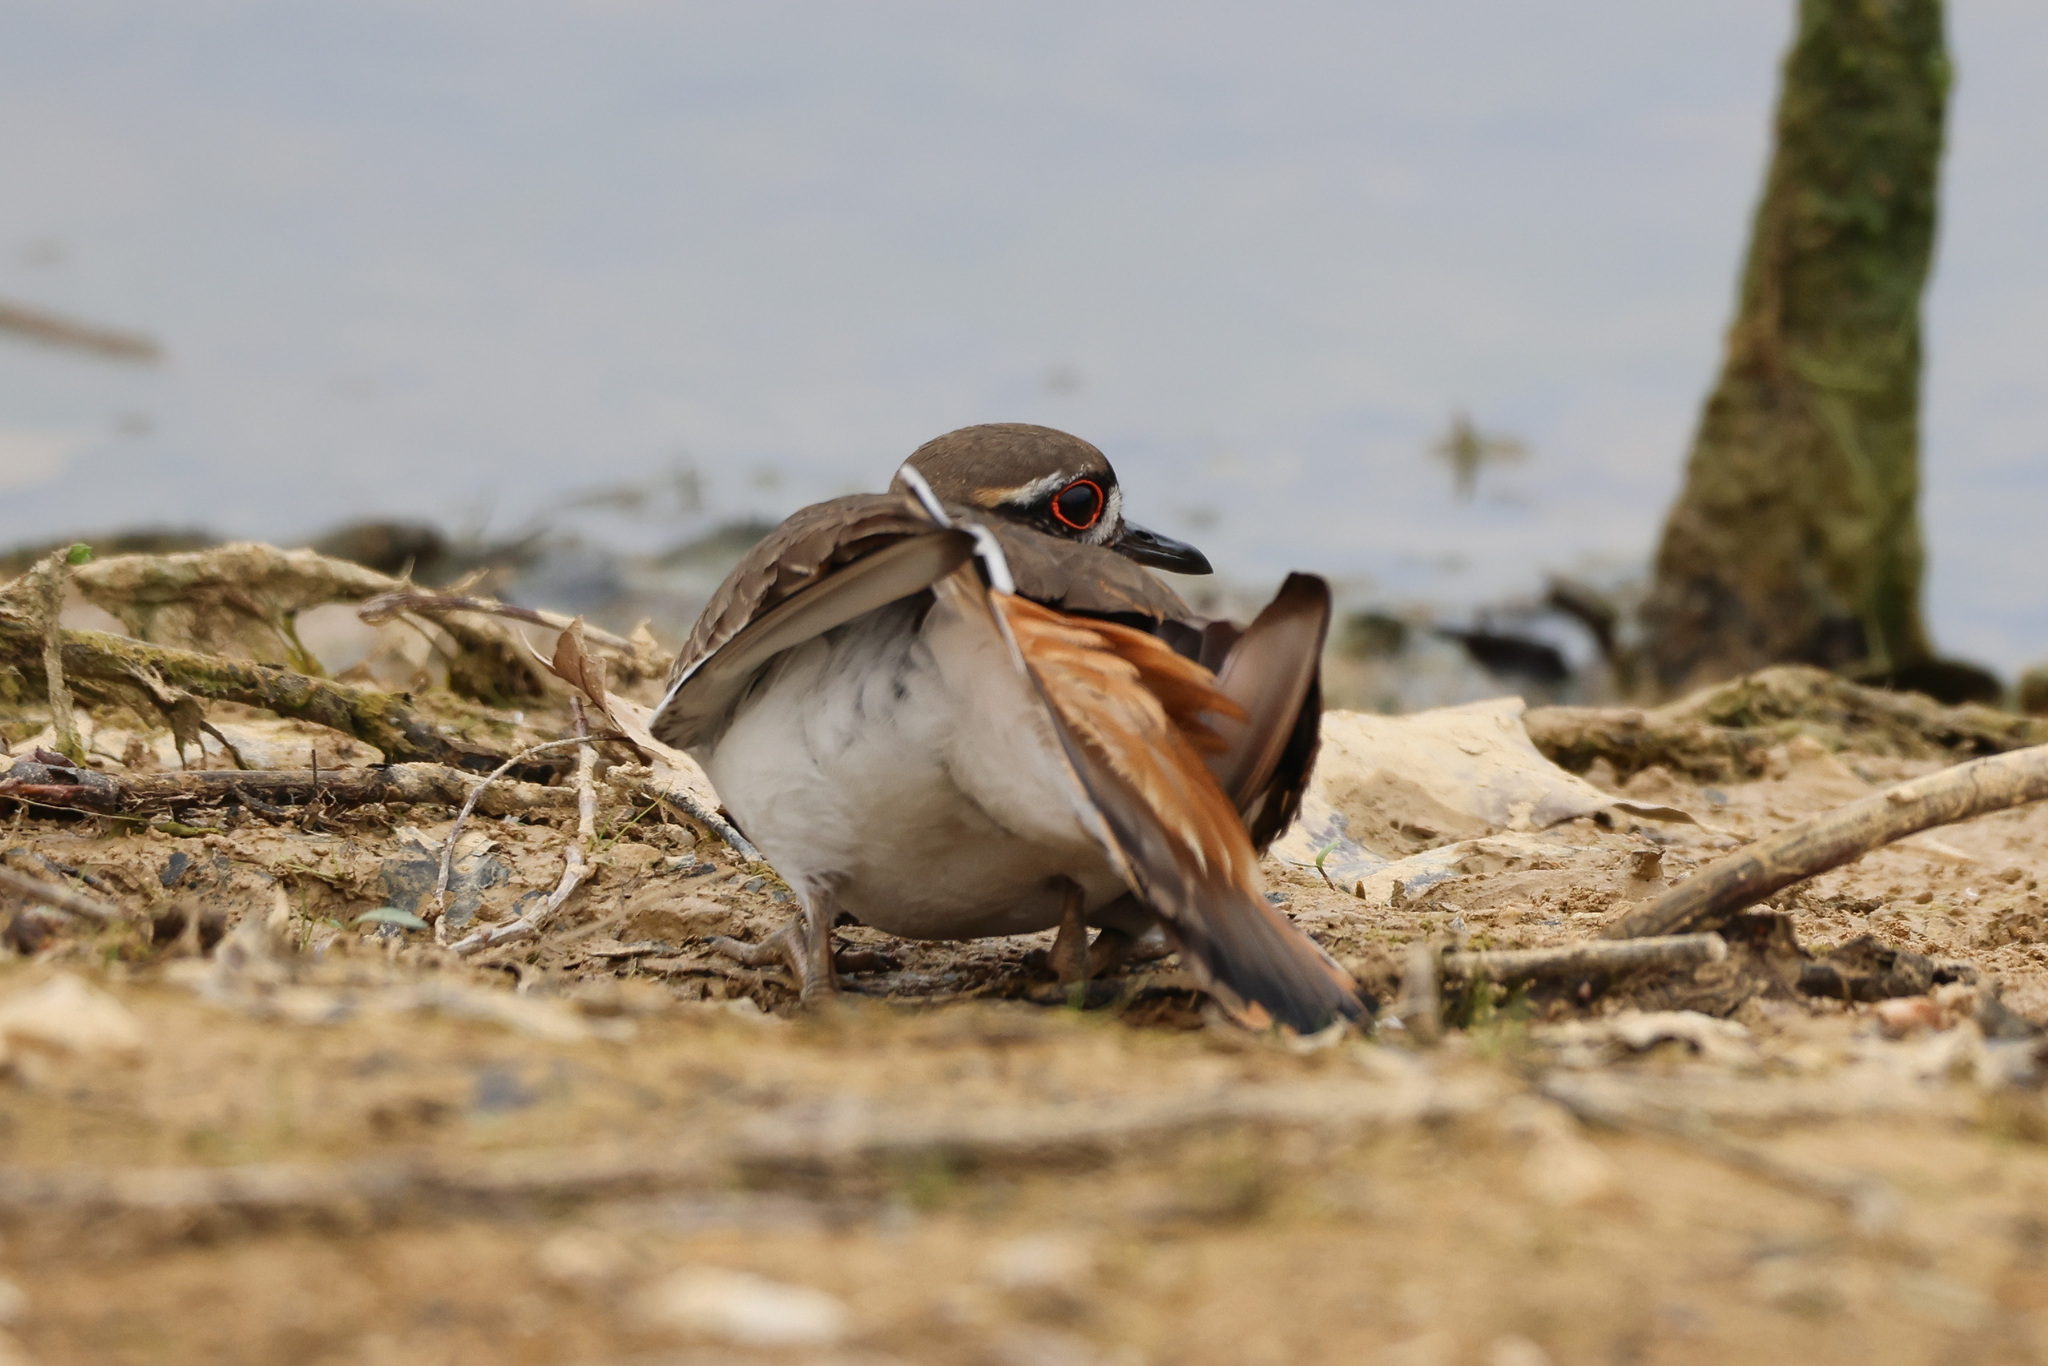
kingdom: Animalia
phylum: Chordata
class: Aves
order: Charadriiformes
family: Charadriidae
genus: Charadrius
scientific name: Charadrius vociferus
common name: Killdeer
